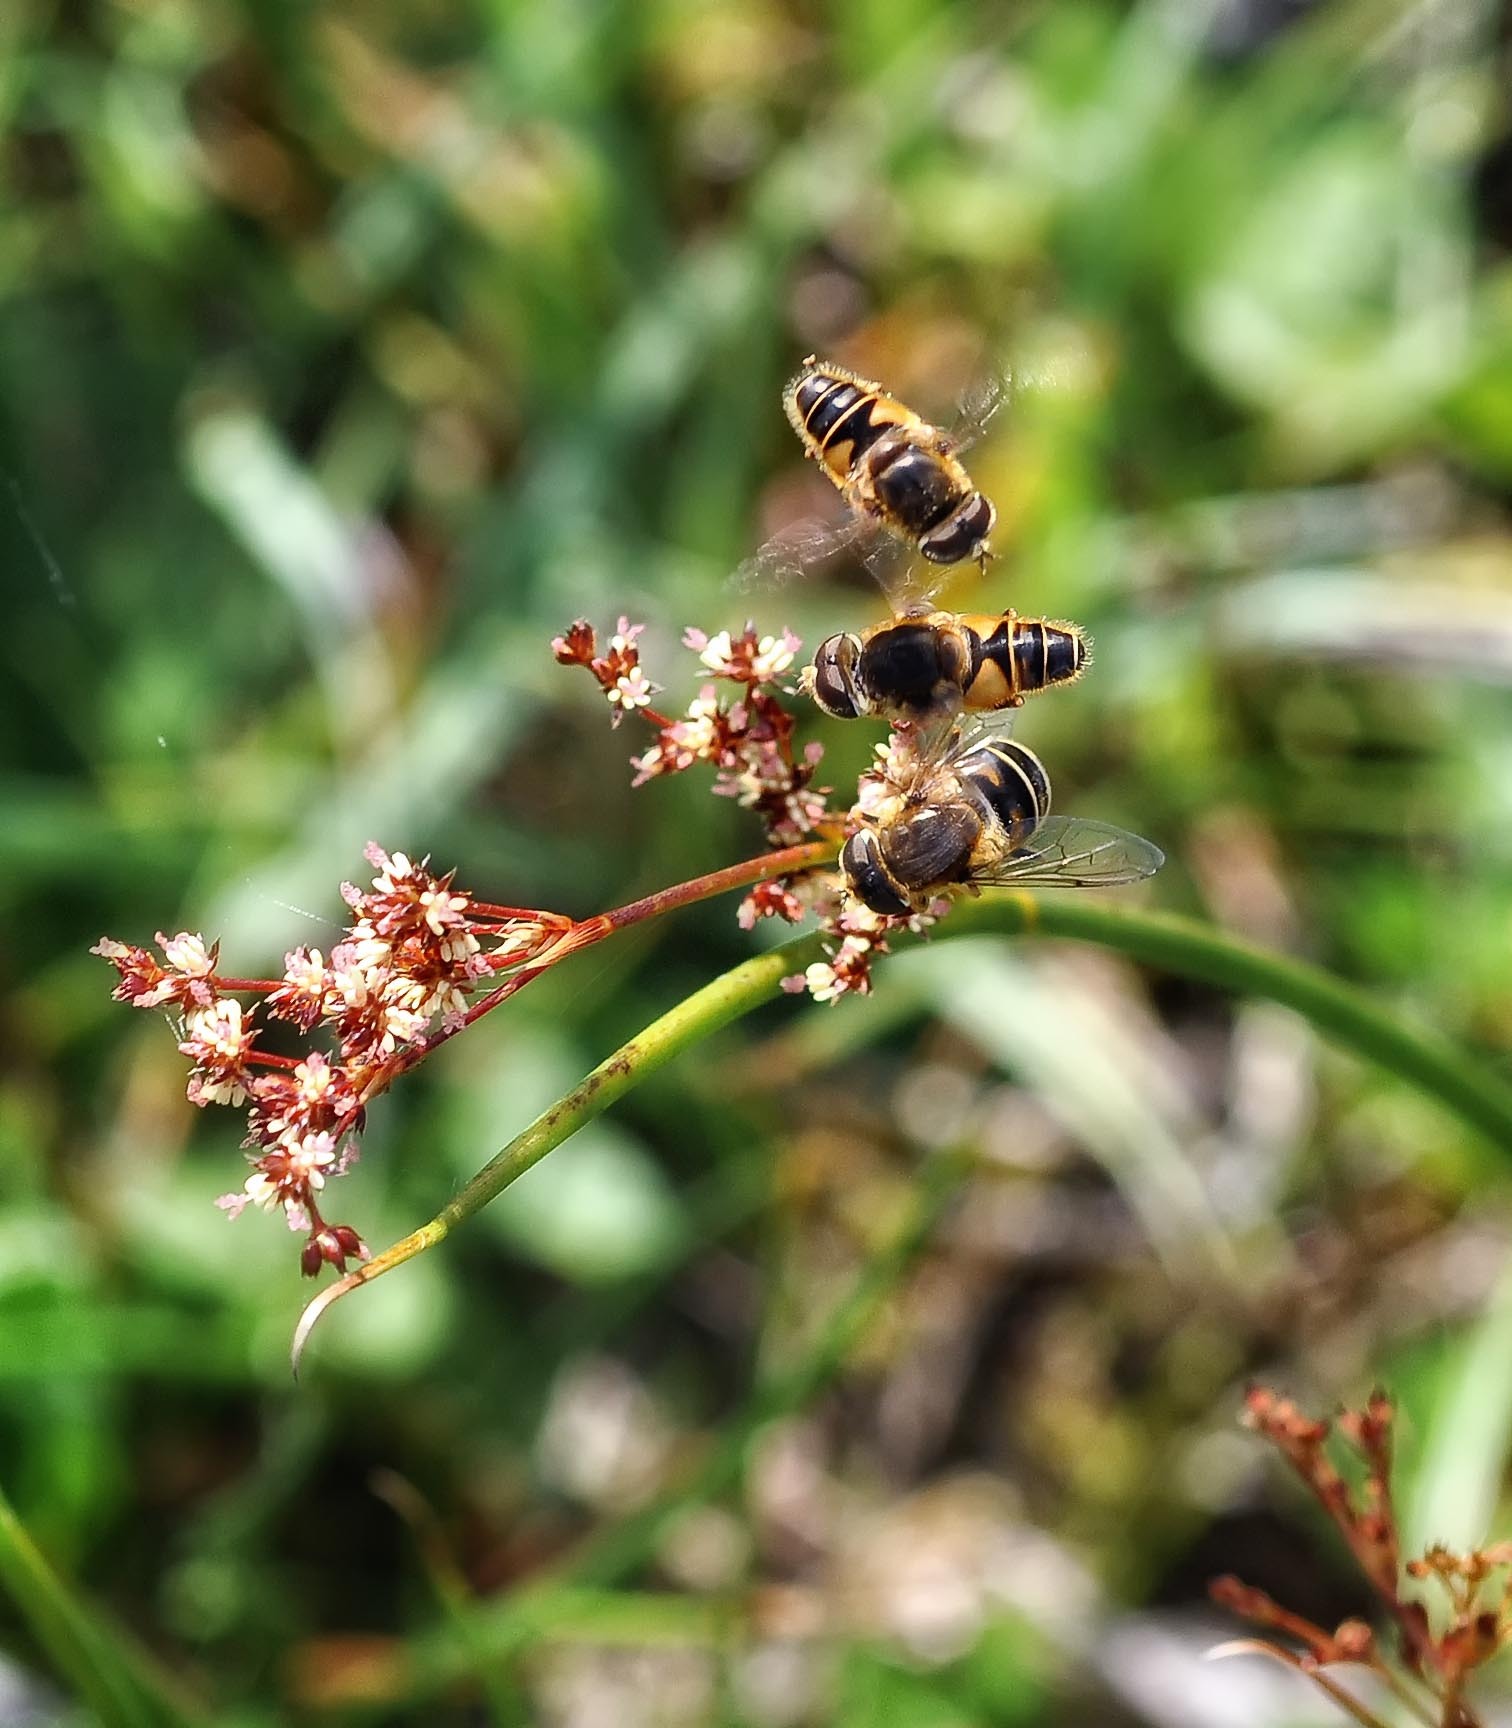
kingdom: Animalia
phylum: Arthropoda
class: Insecta
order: Diptera
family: Syrphidae
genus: Eristalis
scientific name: Eristalis nemorum
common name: Orange-spined drone fly
